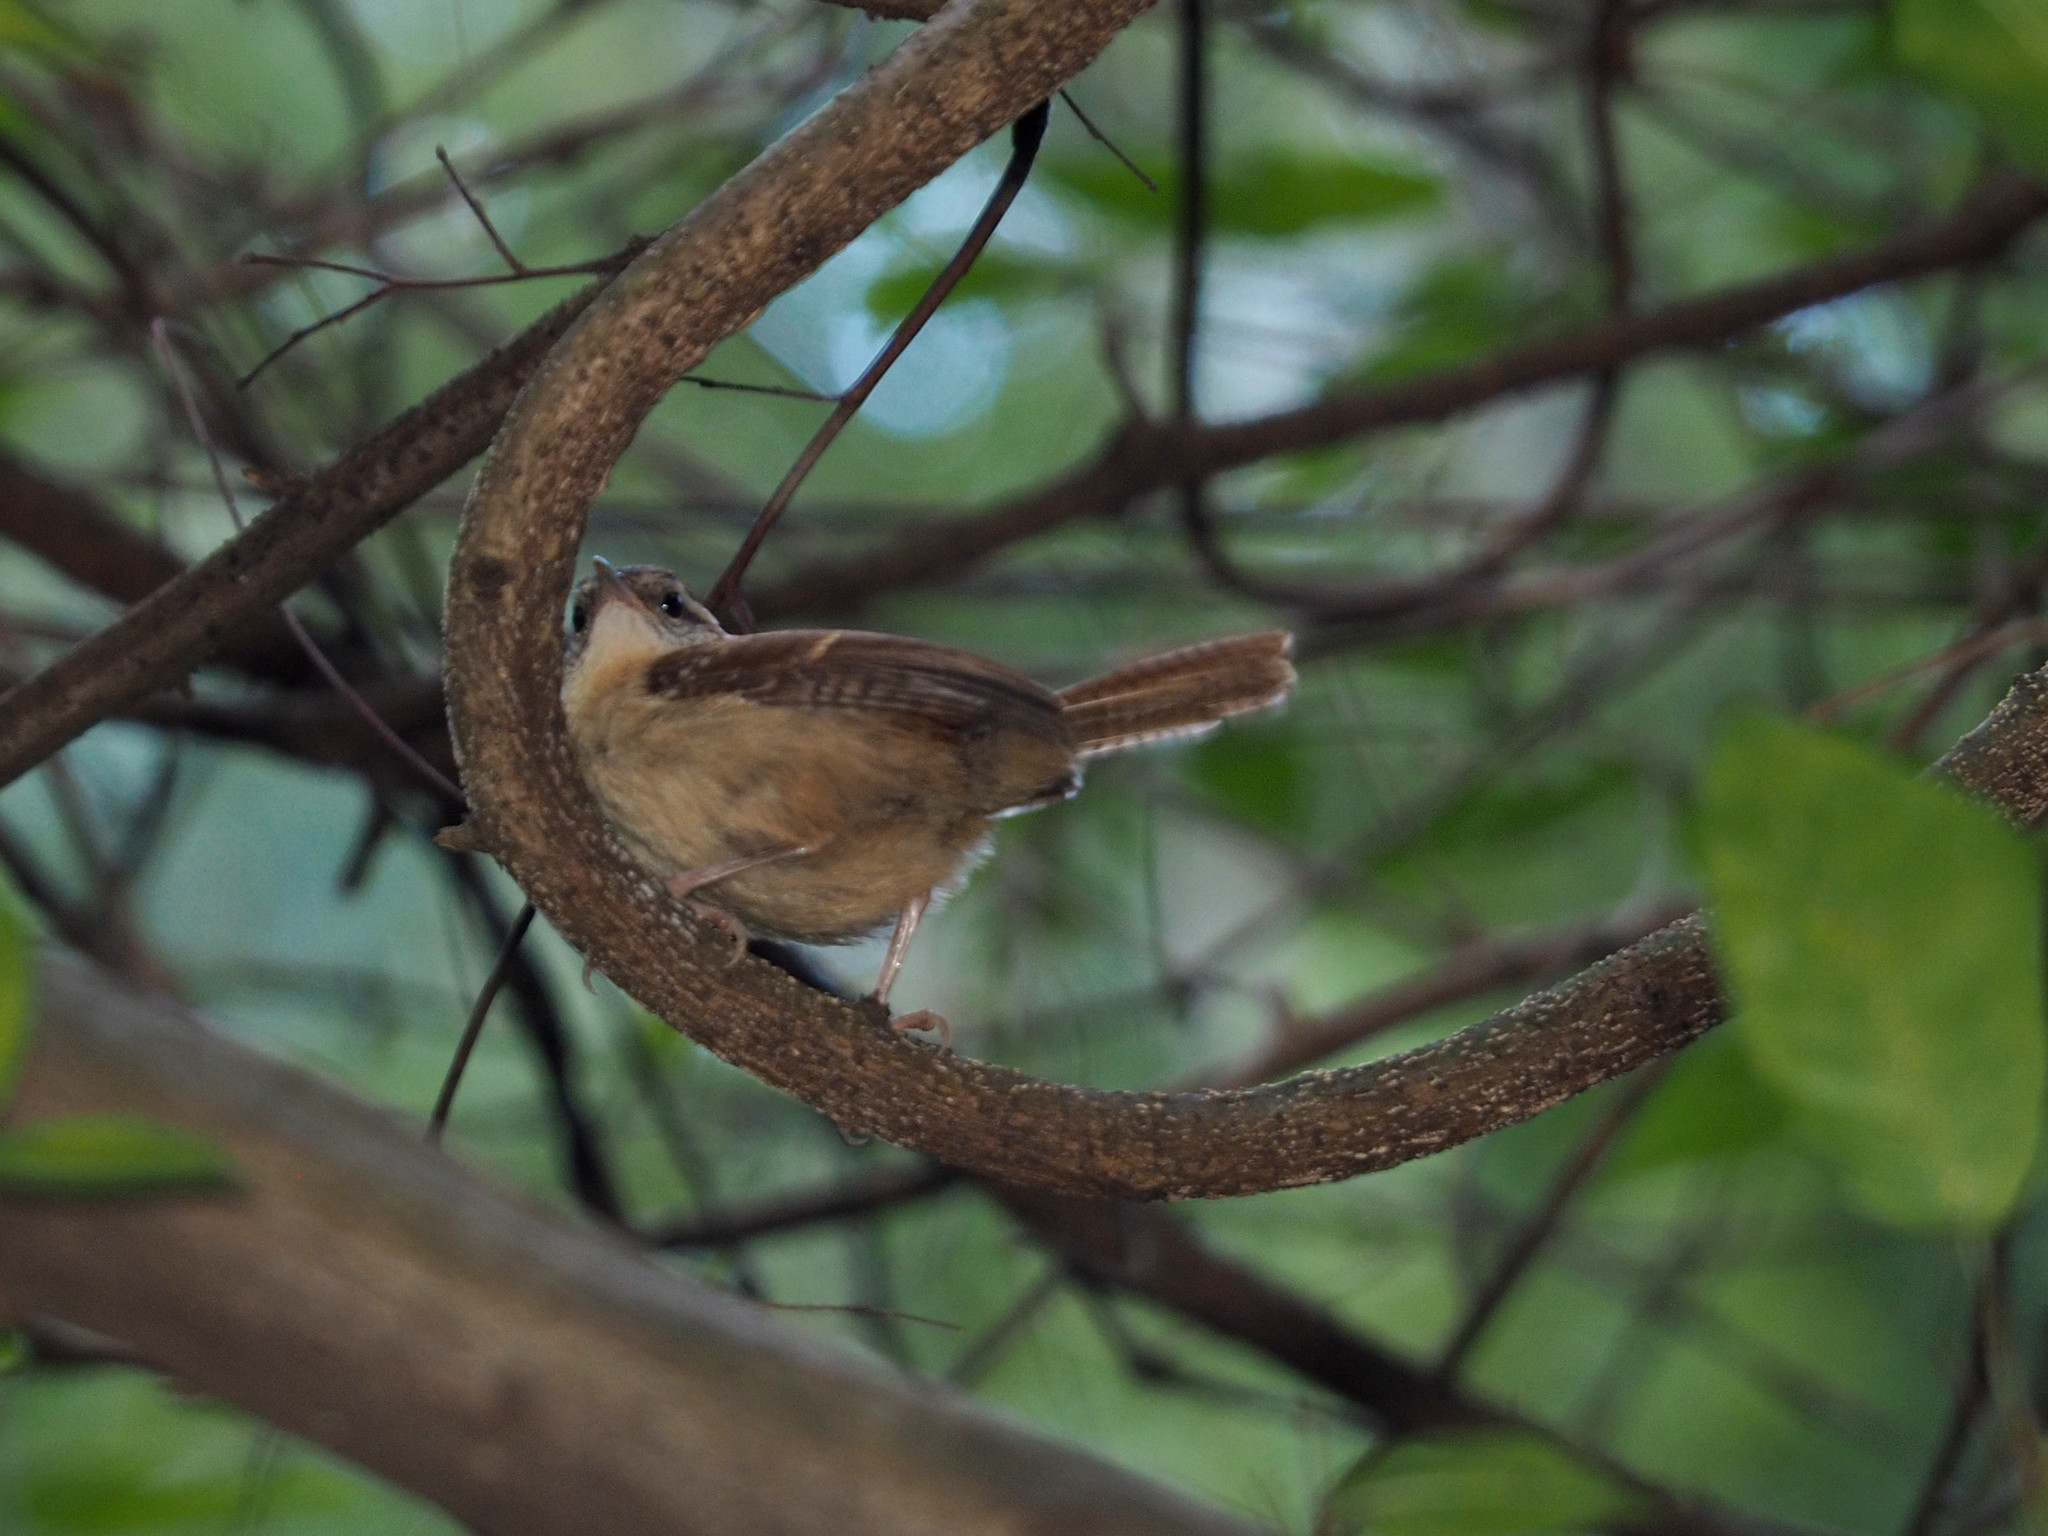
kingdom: Animalia
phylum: Chordata
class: Aves
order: Passeriformes
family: Troglodytidae
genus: Thryothorus
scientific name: Thryothorus ludovicianus
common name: Carolina wren
